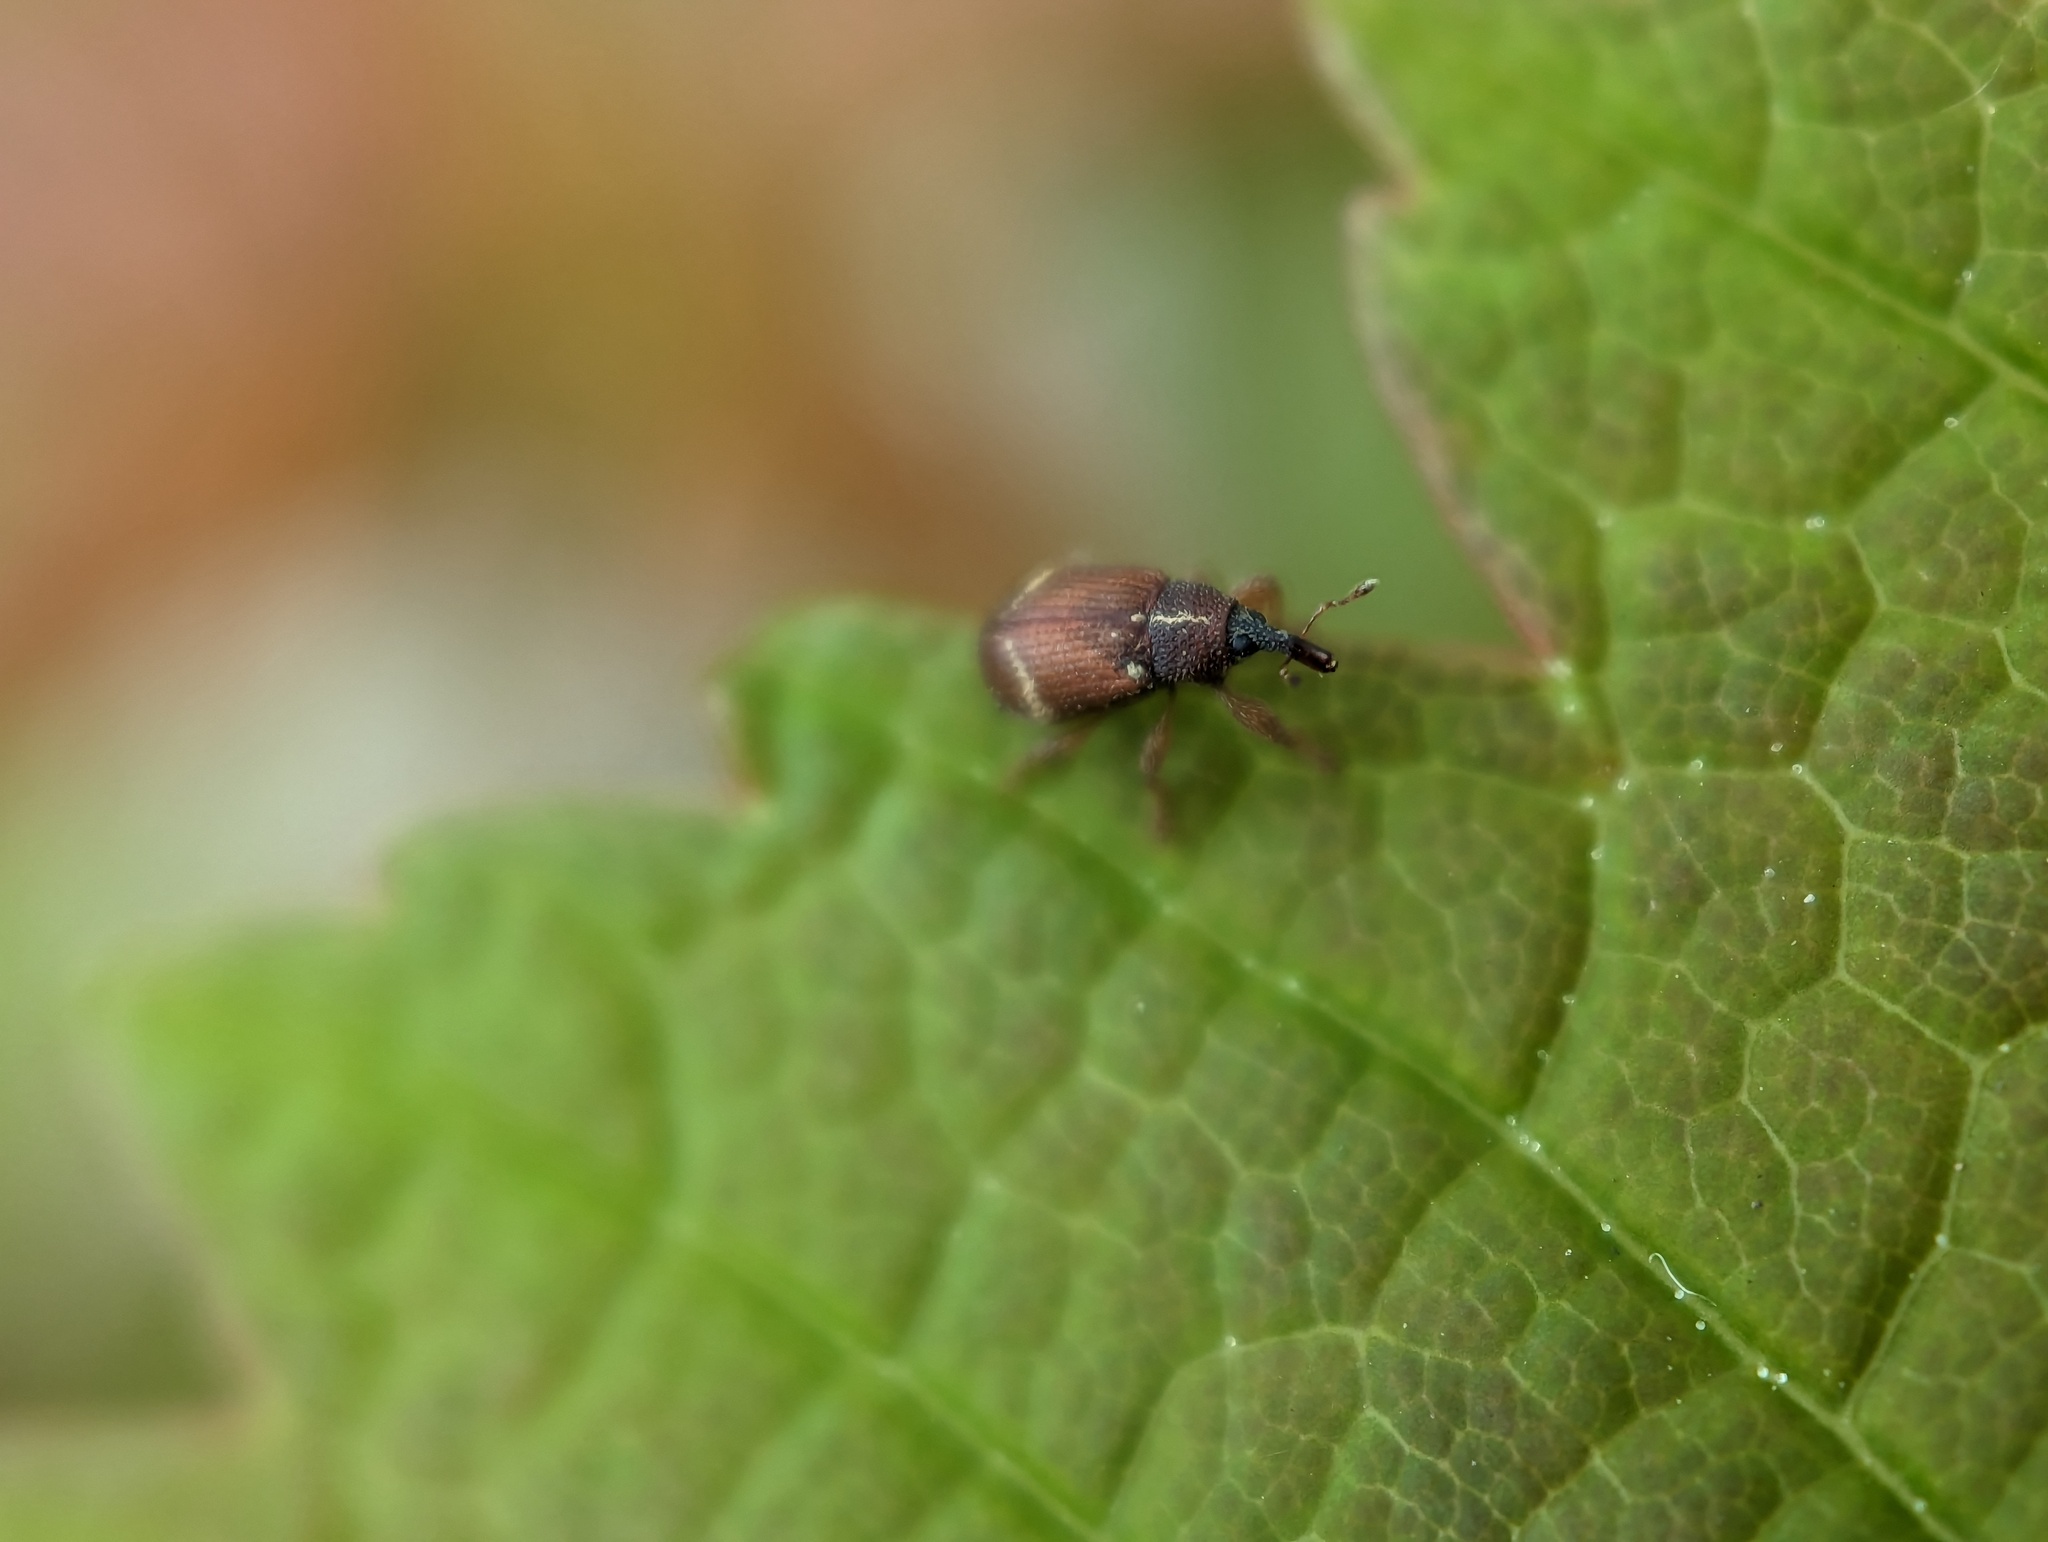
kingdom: Animalia
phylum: Arthropoda
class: Insecta
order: Coleoptera
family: Curculionidae
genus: Bradybatus
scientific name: Bradybatus fallax
